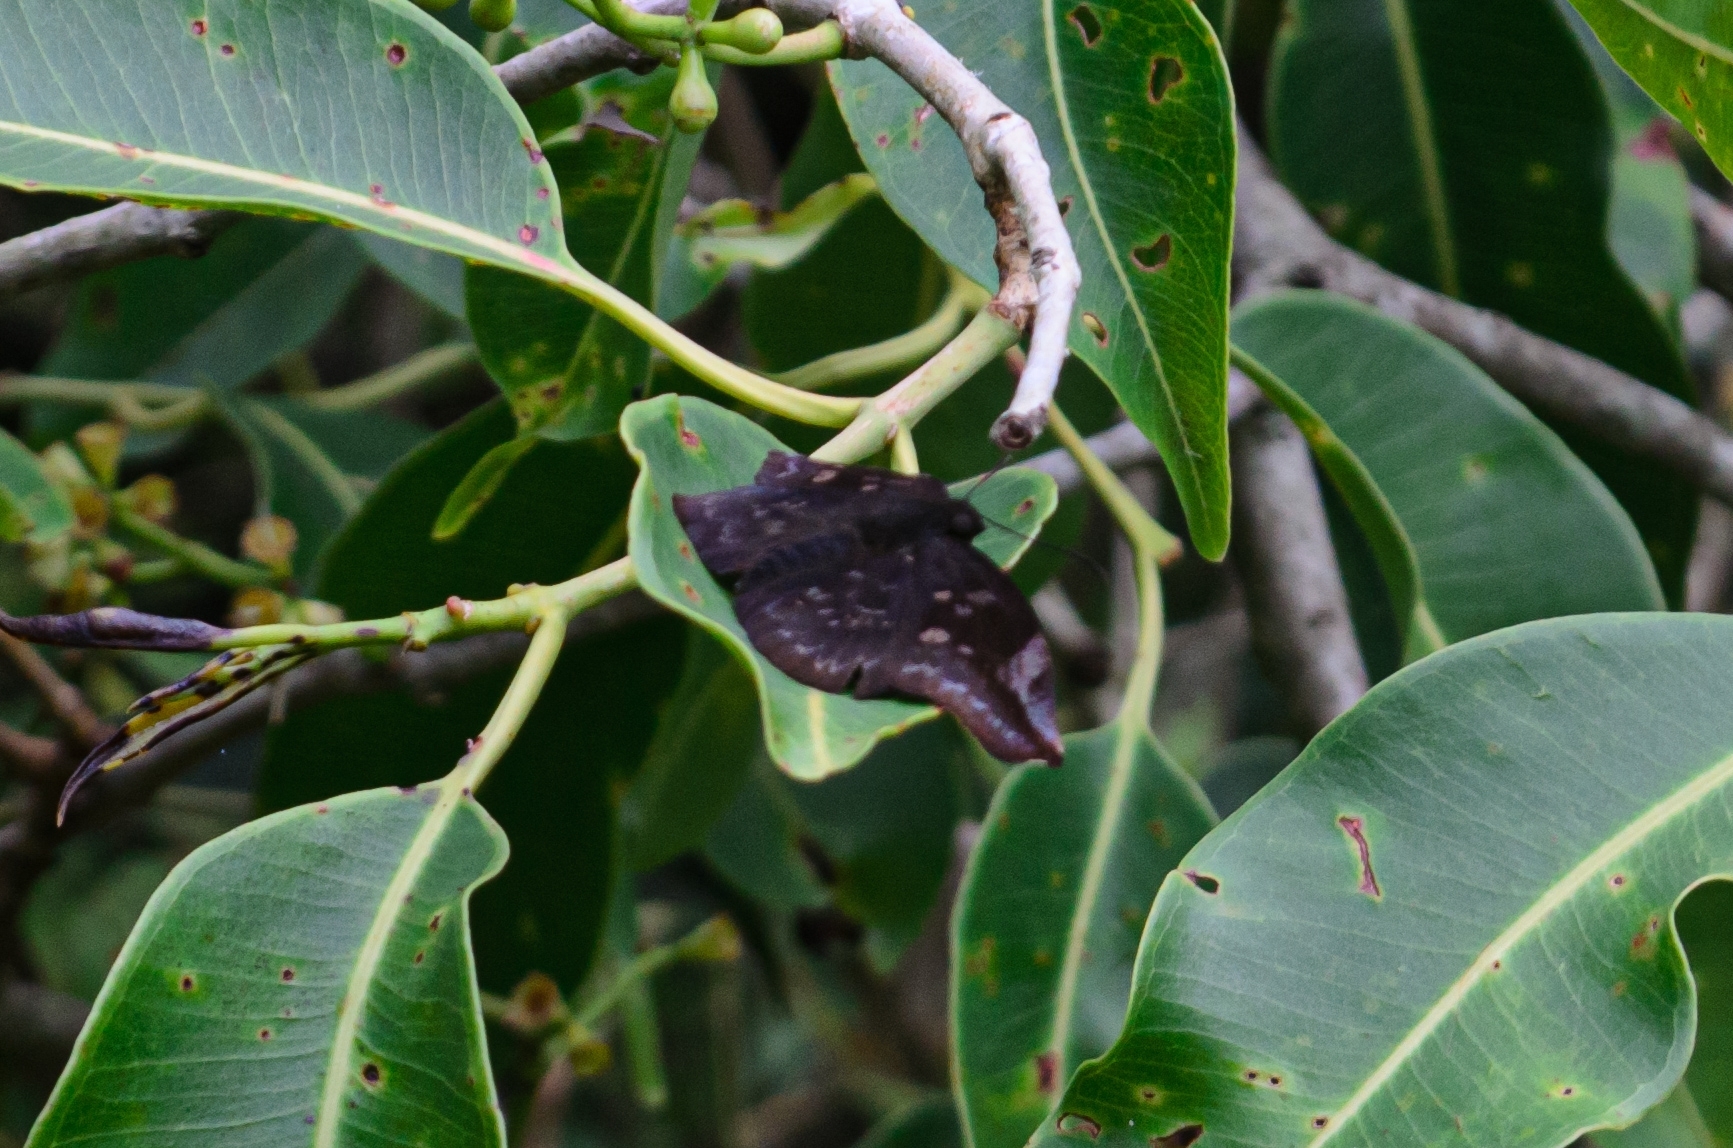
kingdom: Animalia
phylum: Arthropoda
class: Insecta
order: Lepidoptera
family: Hesperiidae
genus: Achlyodes
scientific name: Achlyodes thraso
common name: Sickle-winged skipper
